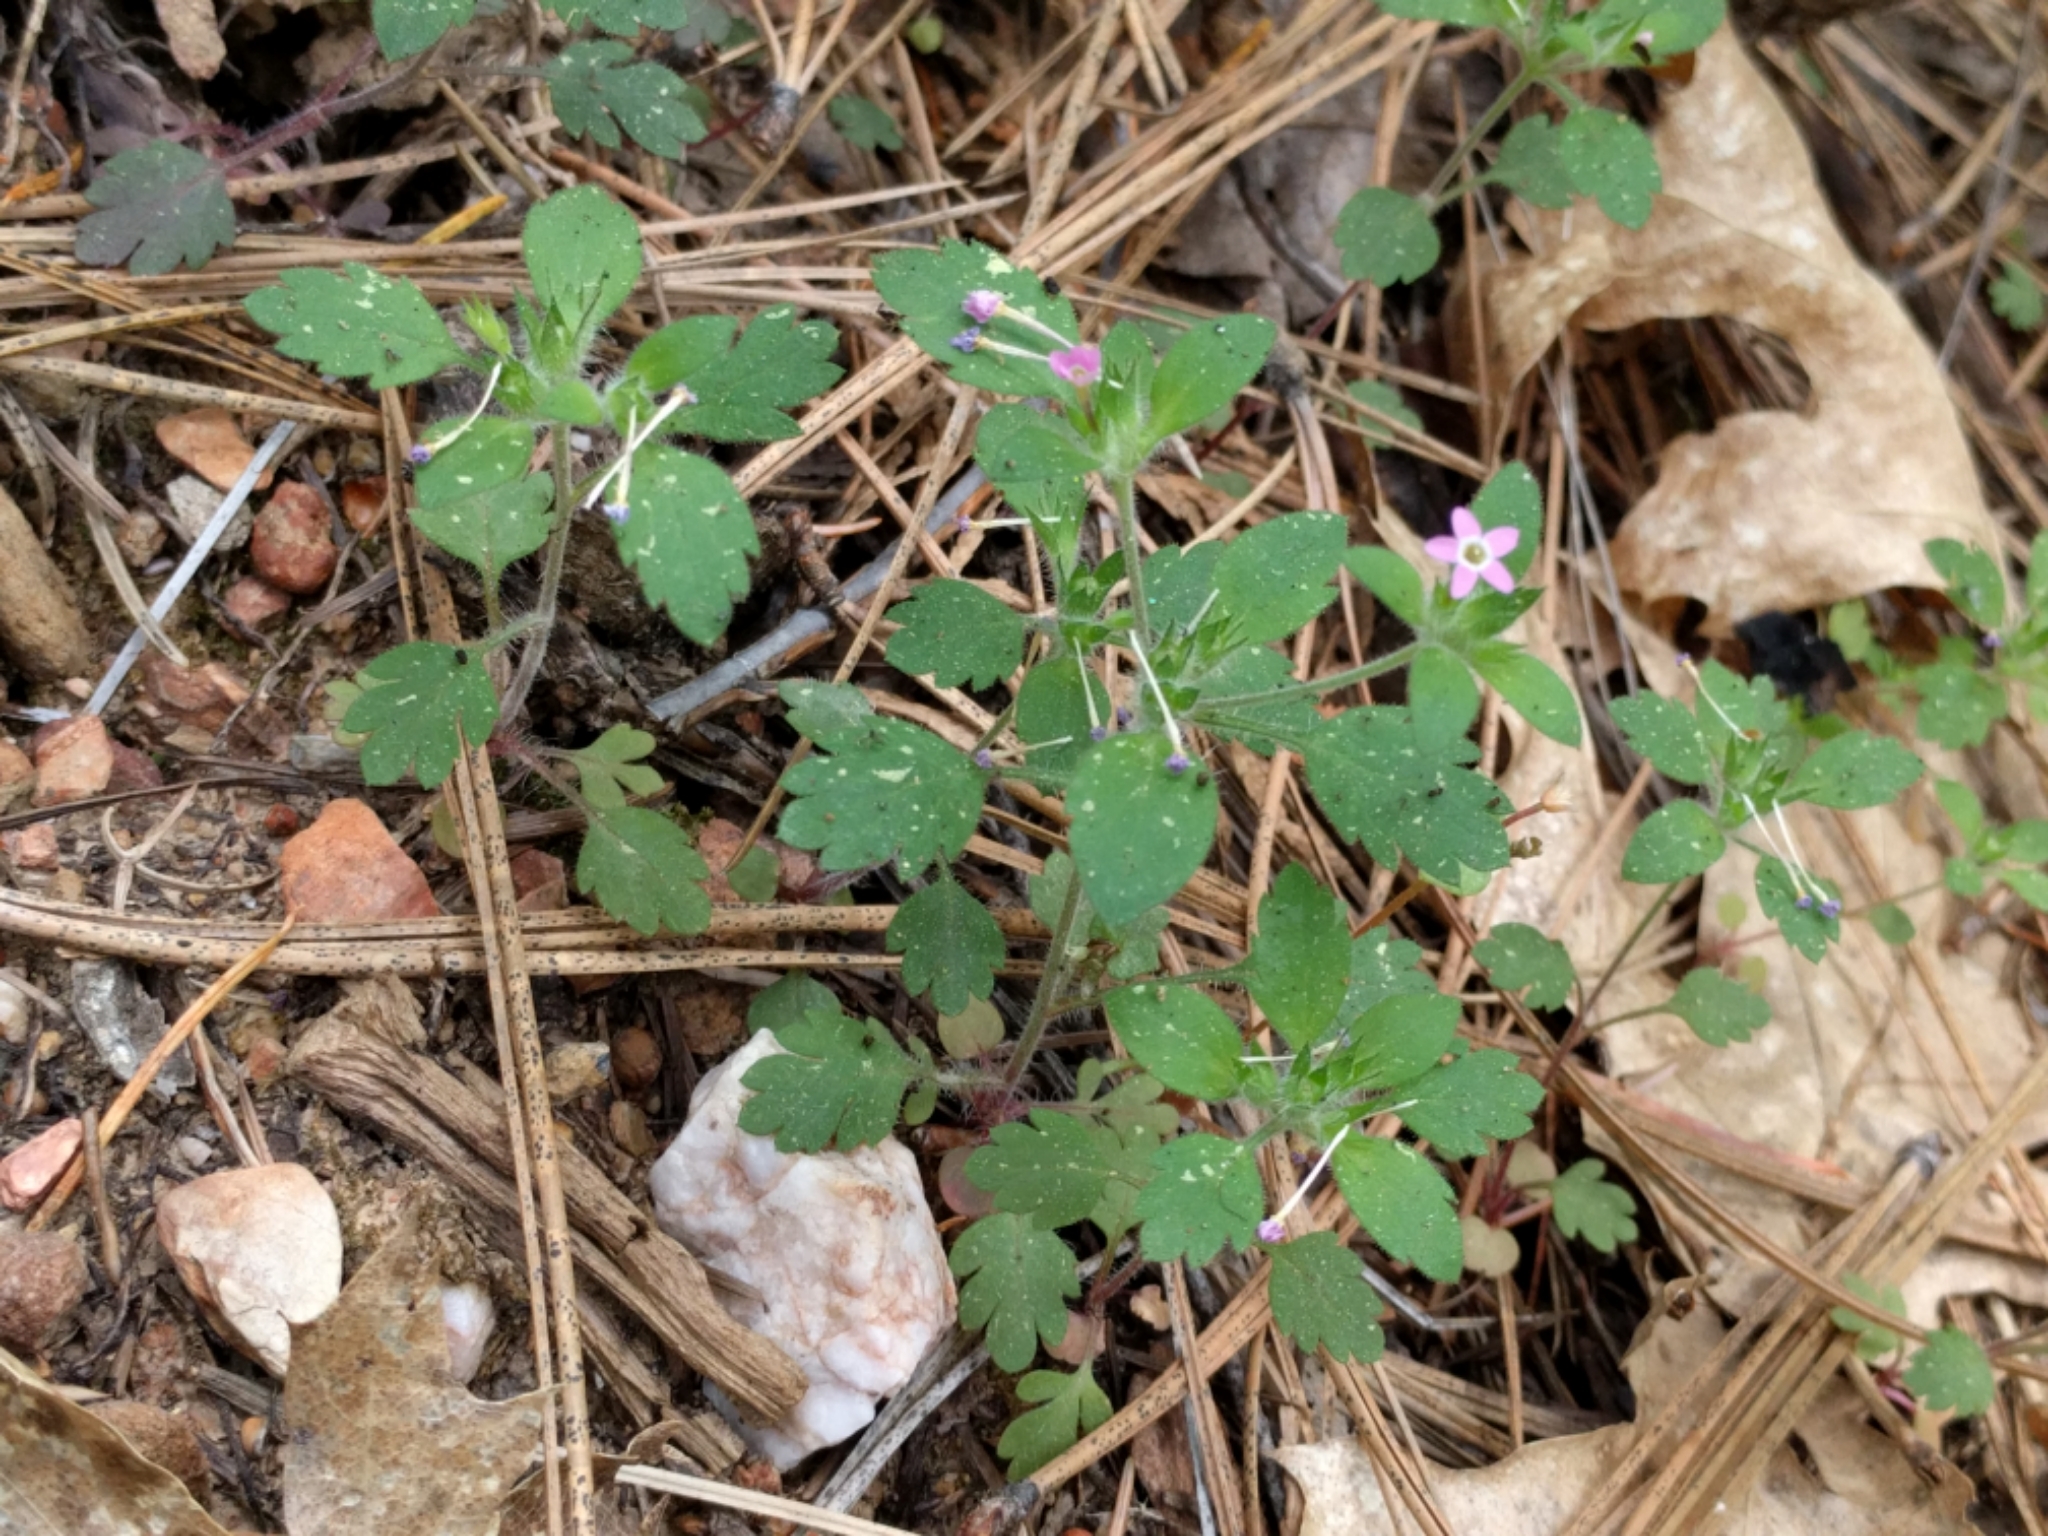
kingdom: Plantae
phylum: Tracheophyta
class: Magnoliopsida
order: Ericales
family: Polemoniaceae
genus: Collomia
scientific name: Collomia heterophylla
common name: Variable-leaved collomia
